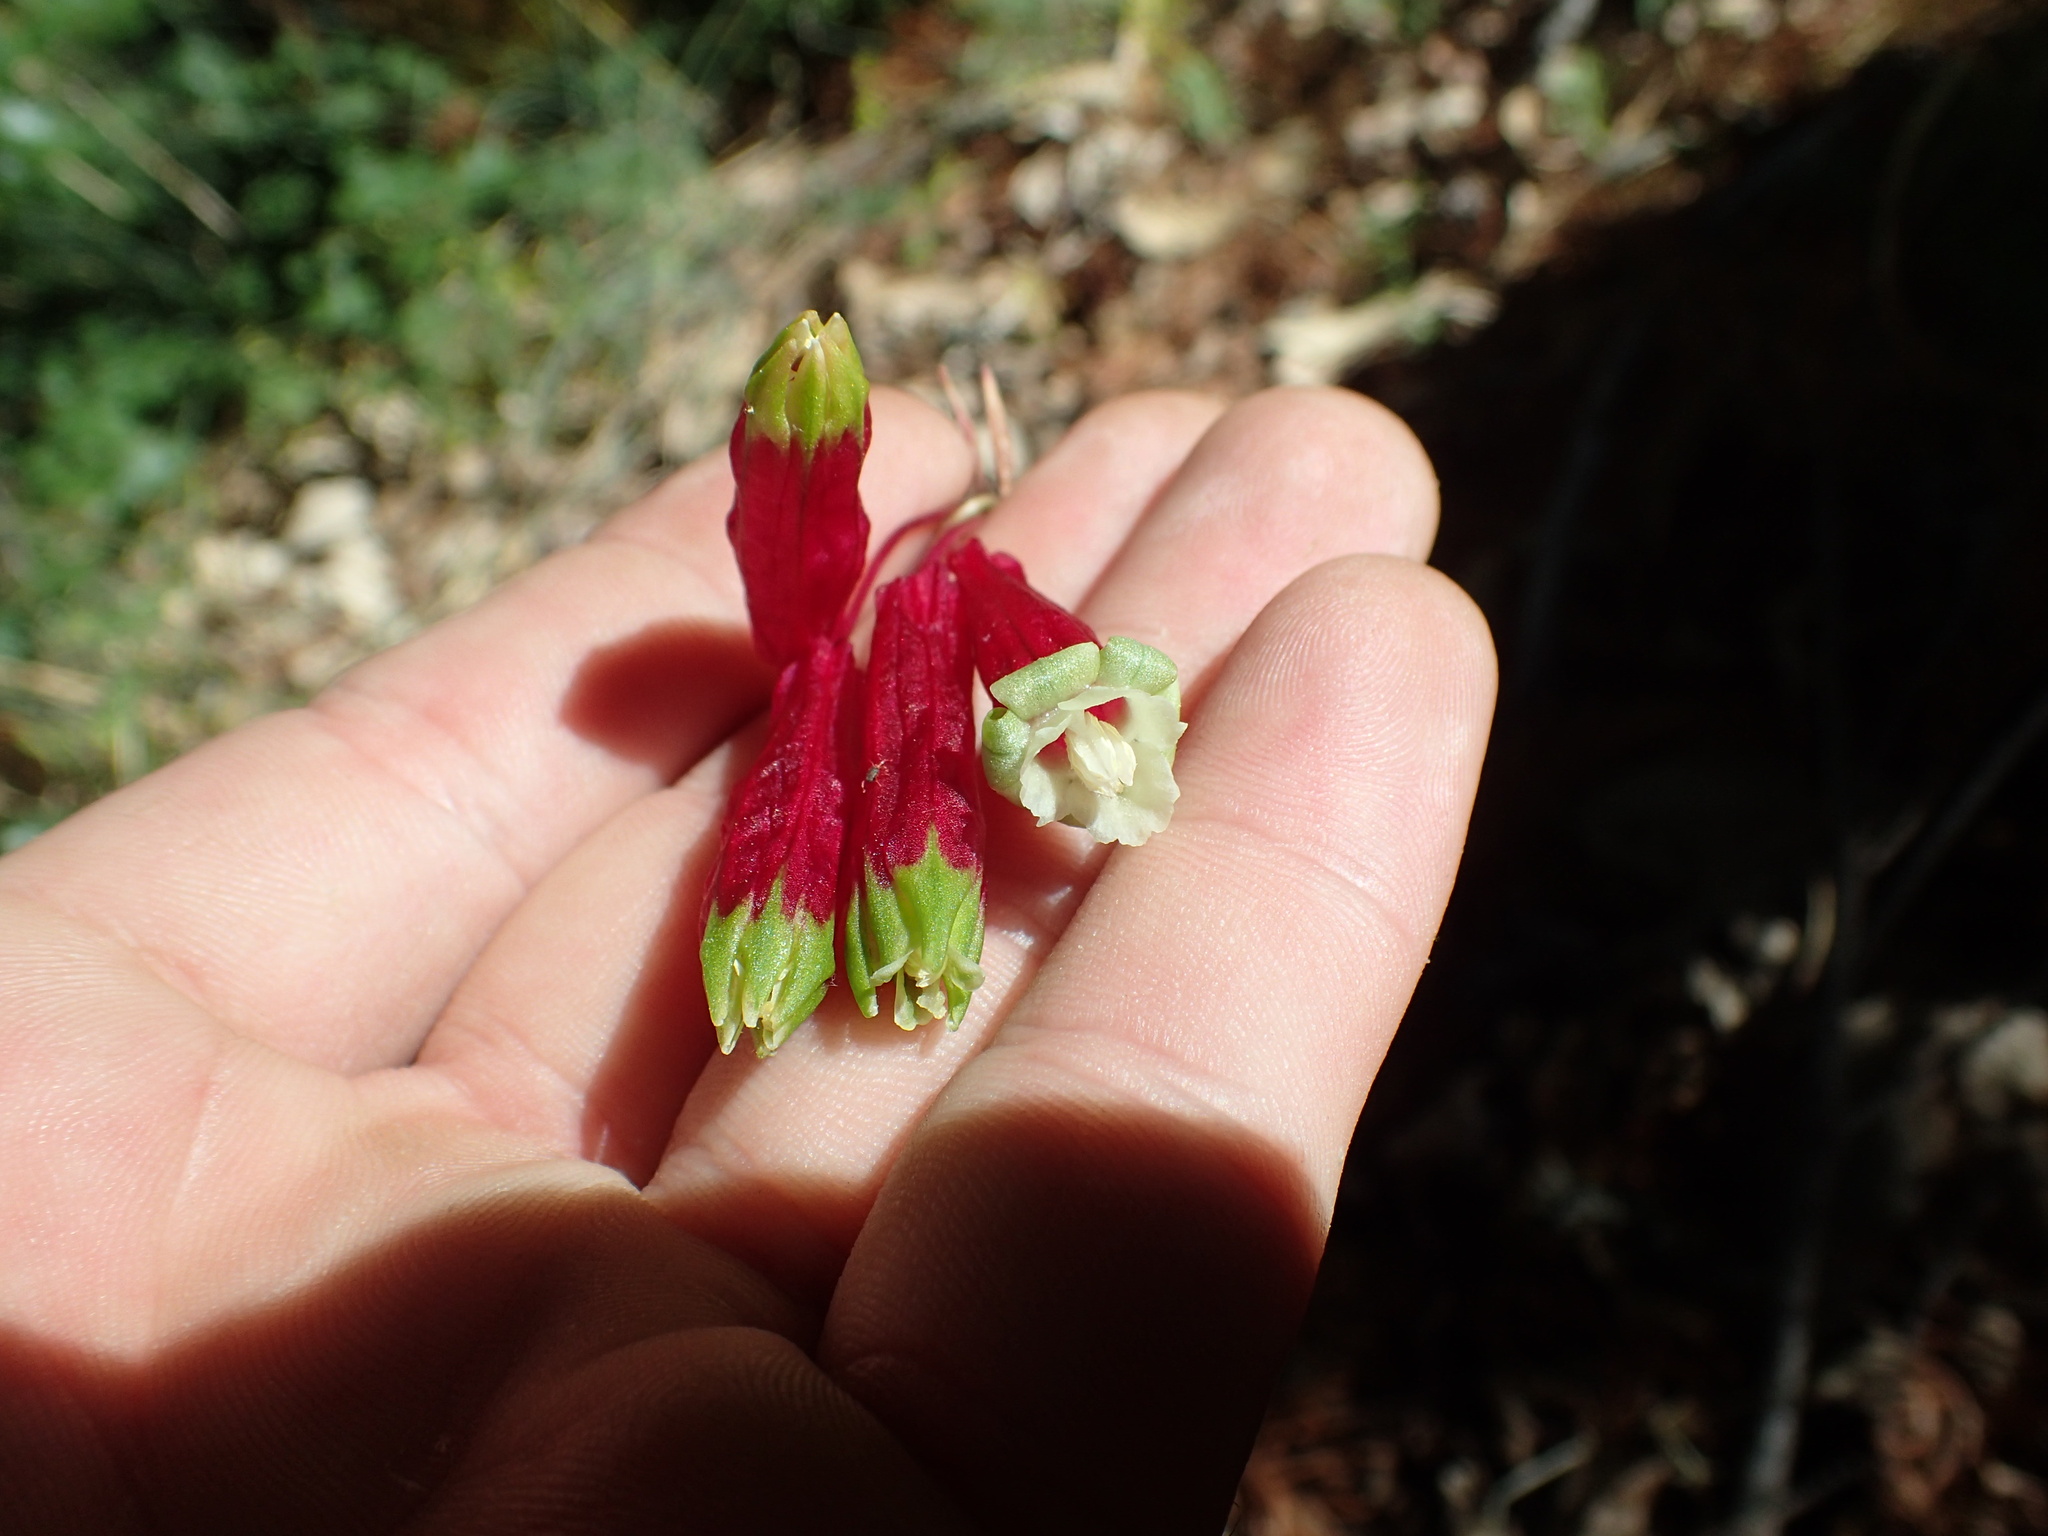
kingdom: Plantae
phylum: Tracheophyta
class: Liliopsida
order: Asparagales
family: Asparagaceae
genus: Dichelostemma
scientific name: Dichelostemma ida-maia
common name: Firecracker-flower
